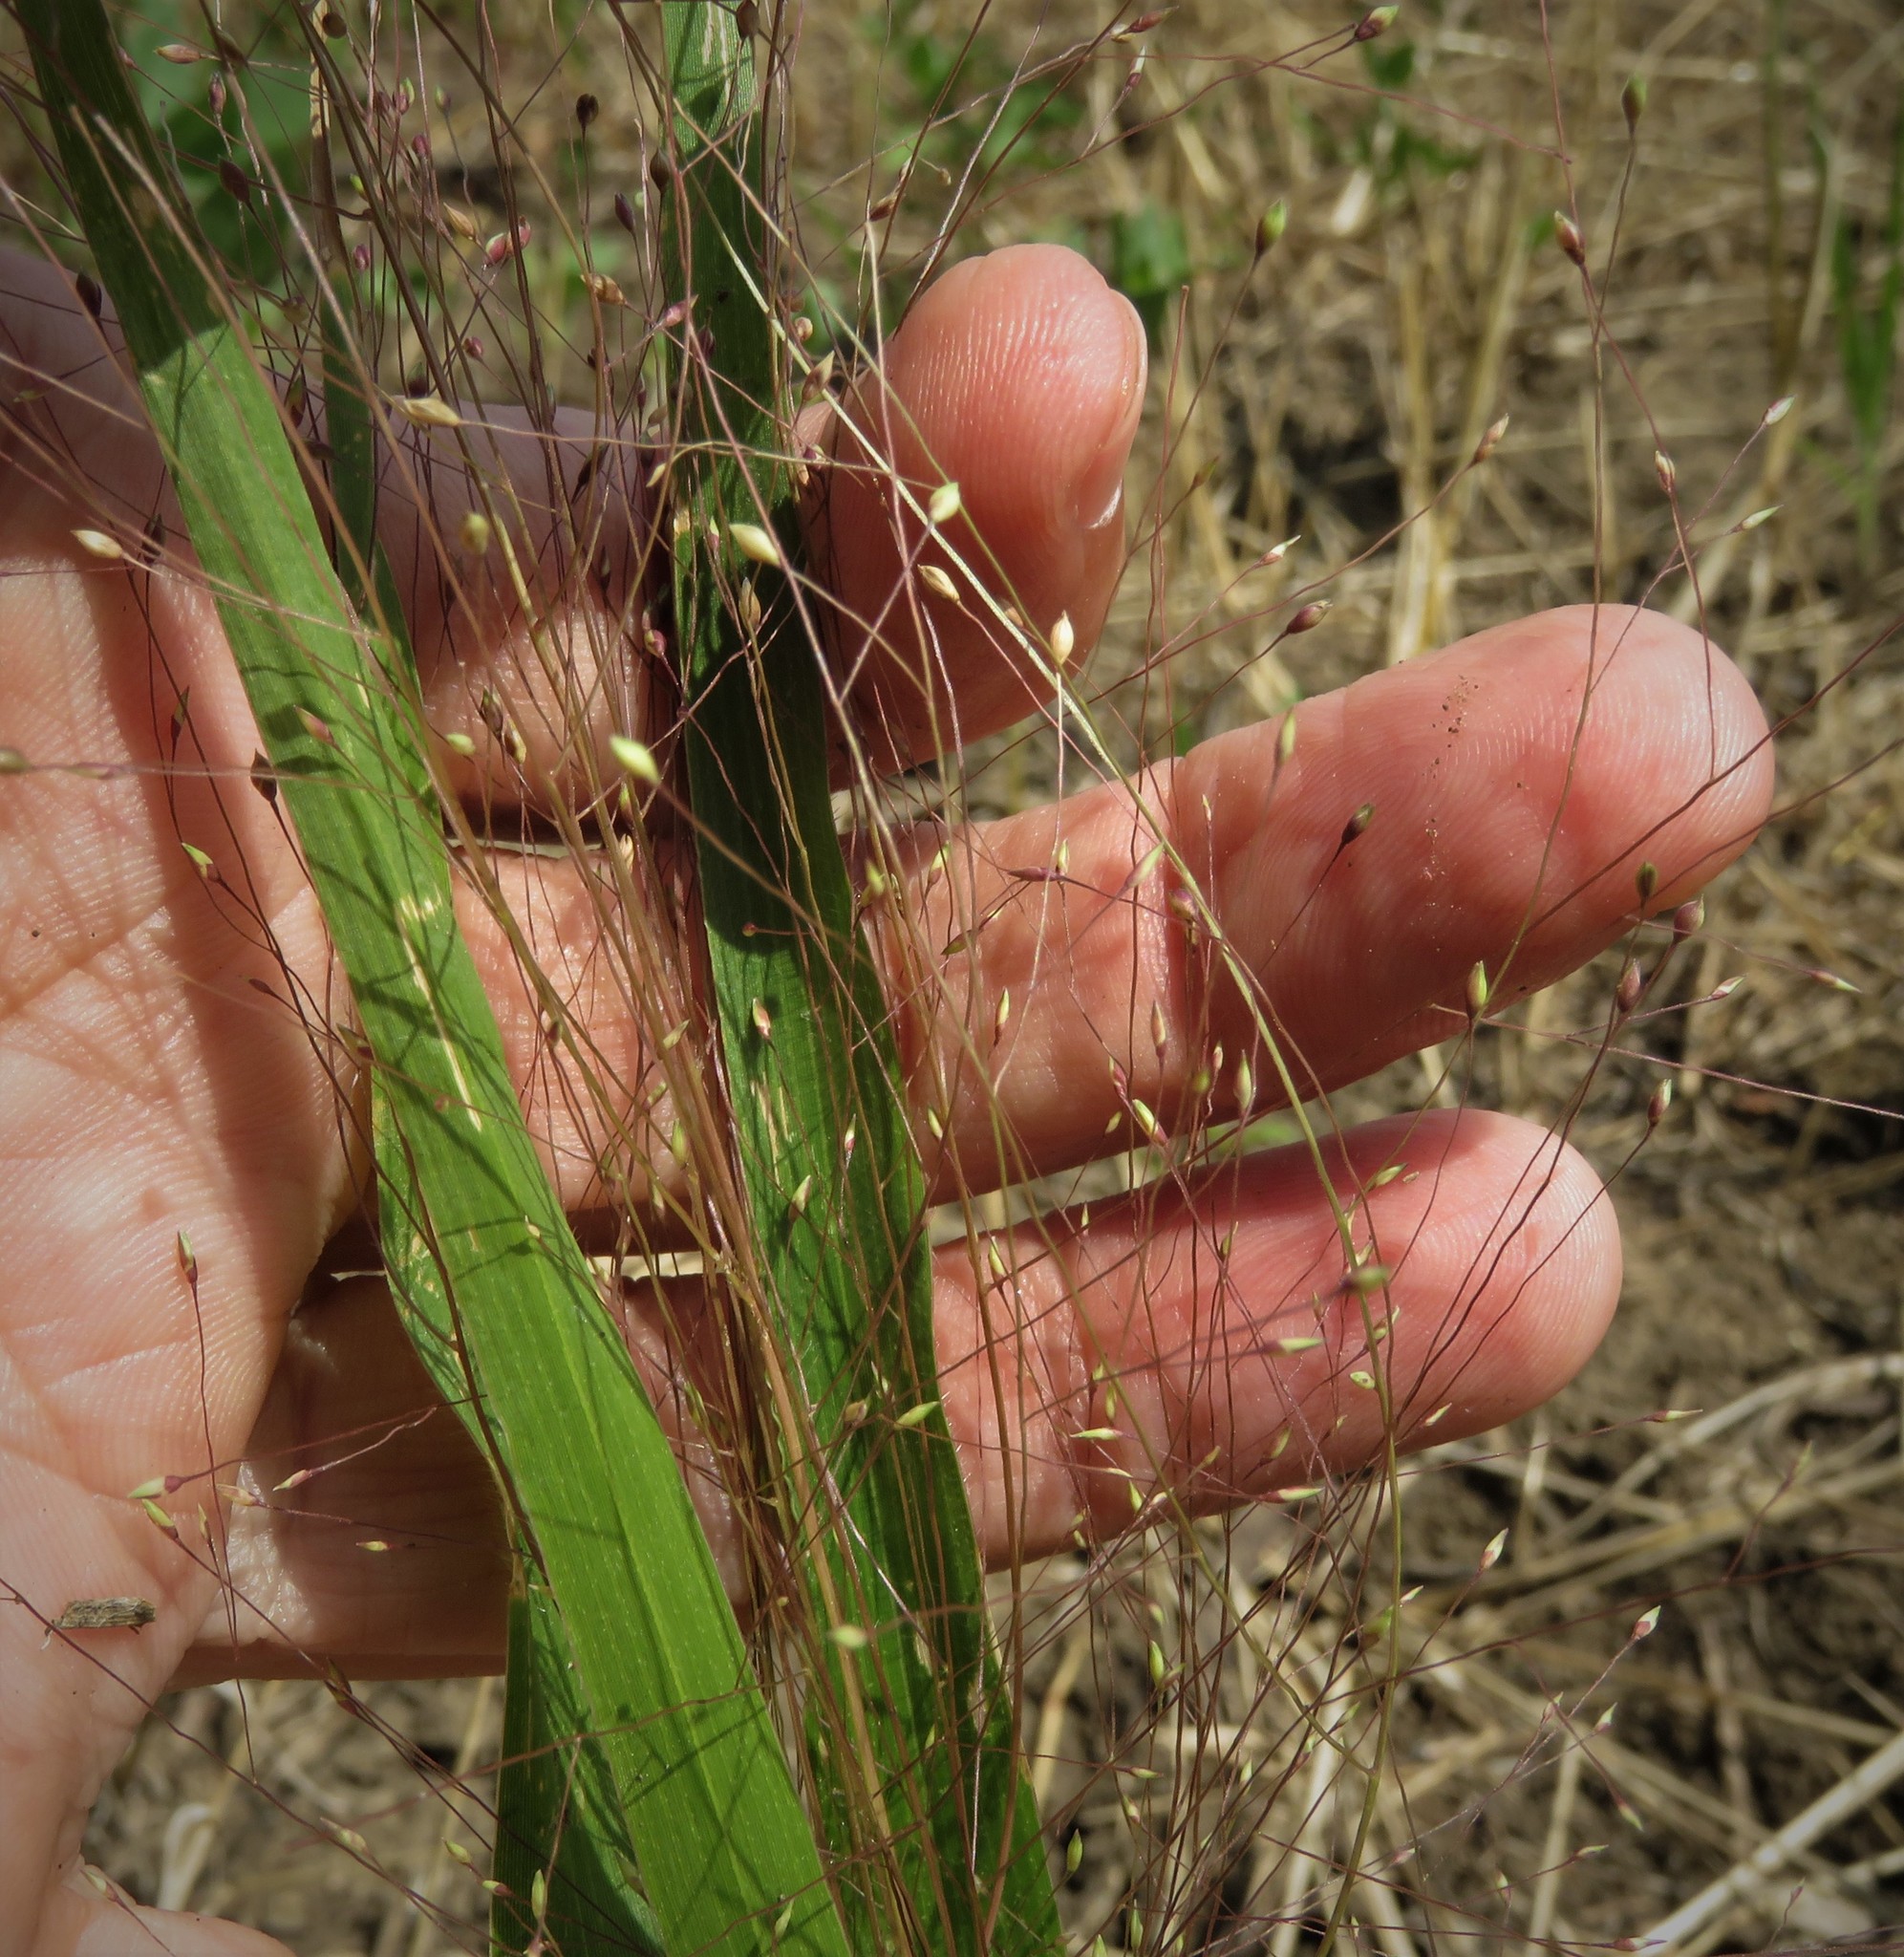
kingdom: Plantae
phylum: Tracheophyta
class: Liliopsida
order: Poales
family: Poaceae
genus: Panicum
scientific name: Panicum capillare
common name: Witch-grass
